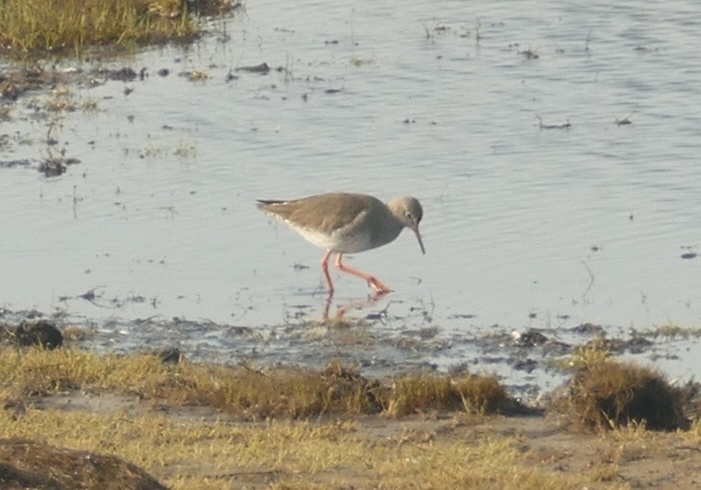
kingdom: Animalia
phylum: Chordata
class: Aves
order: Charadriiformes
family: Scolopacidae
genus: Tringa
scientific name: Tringa totanus
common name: Common redshank
